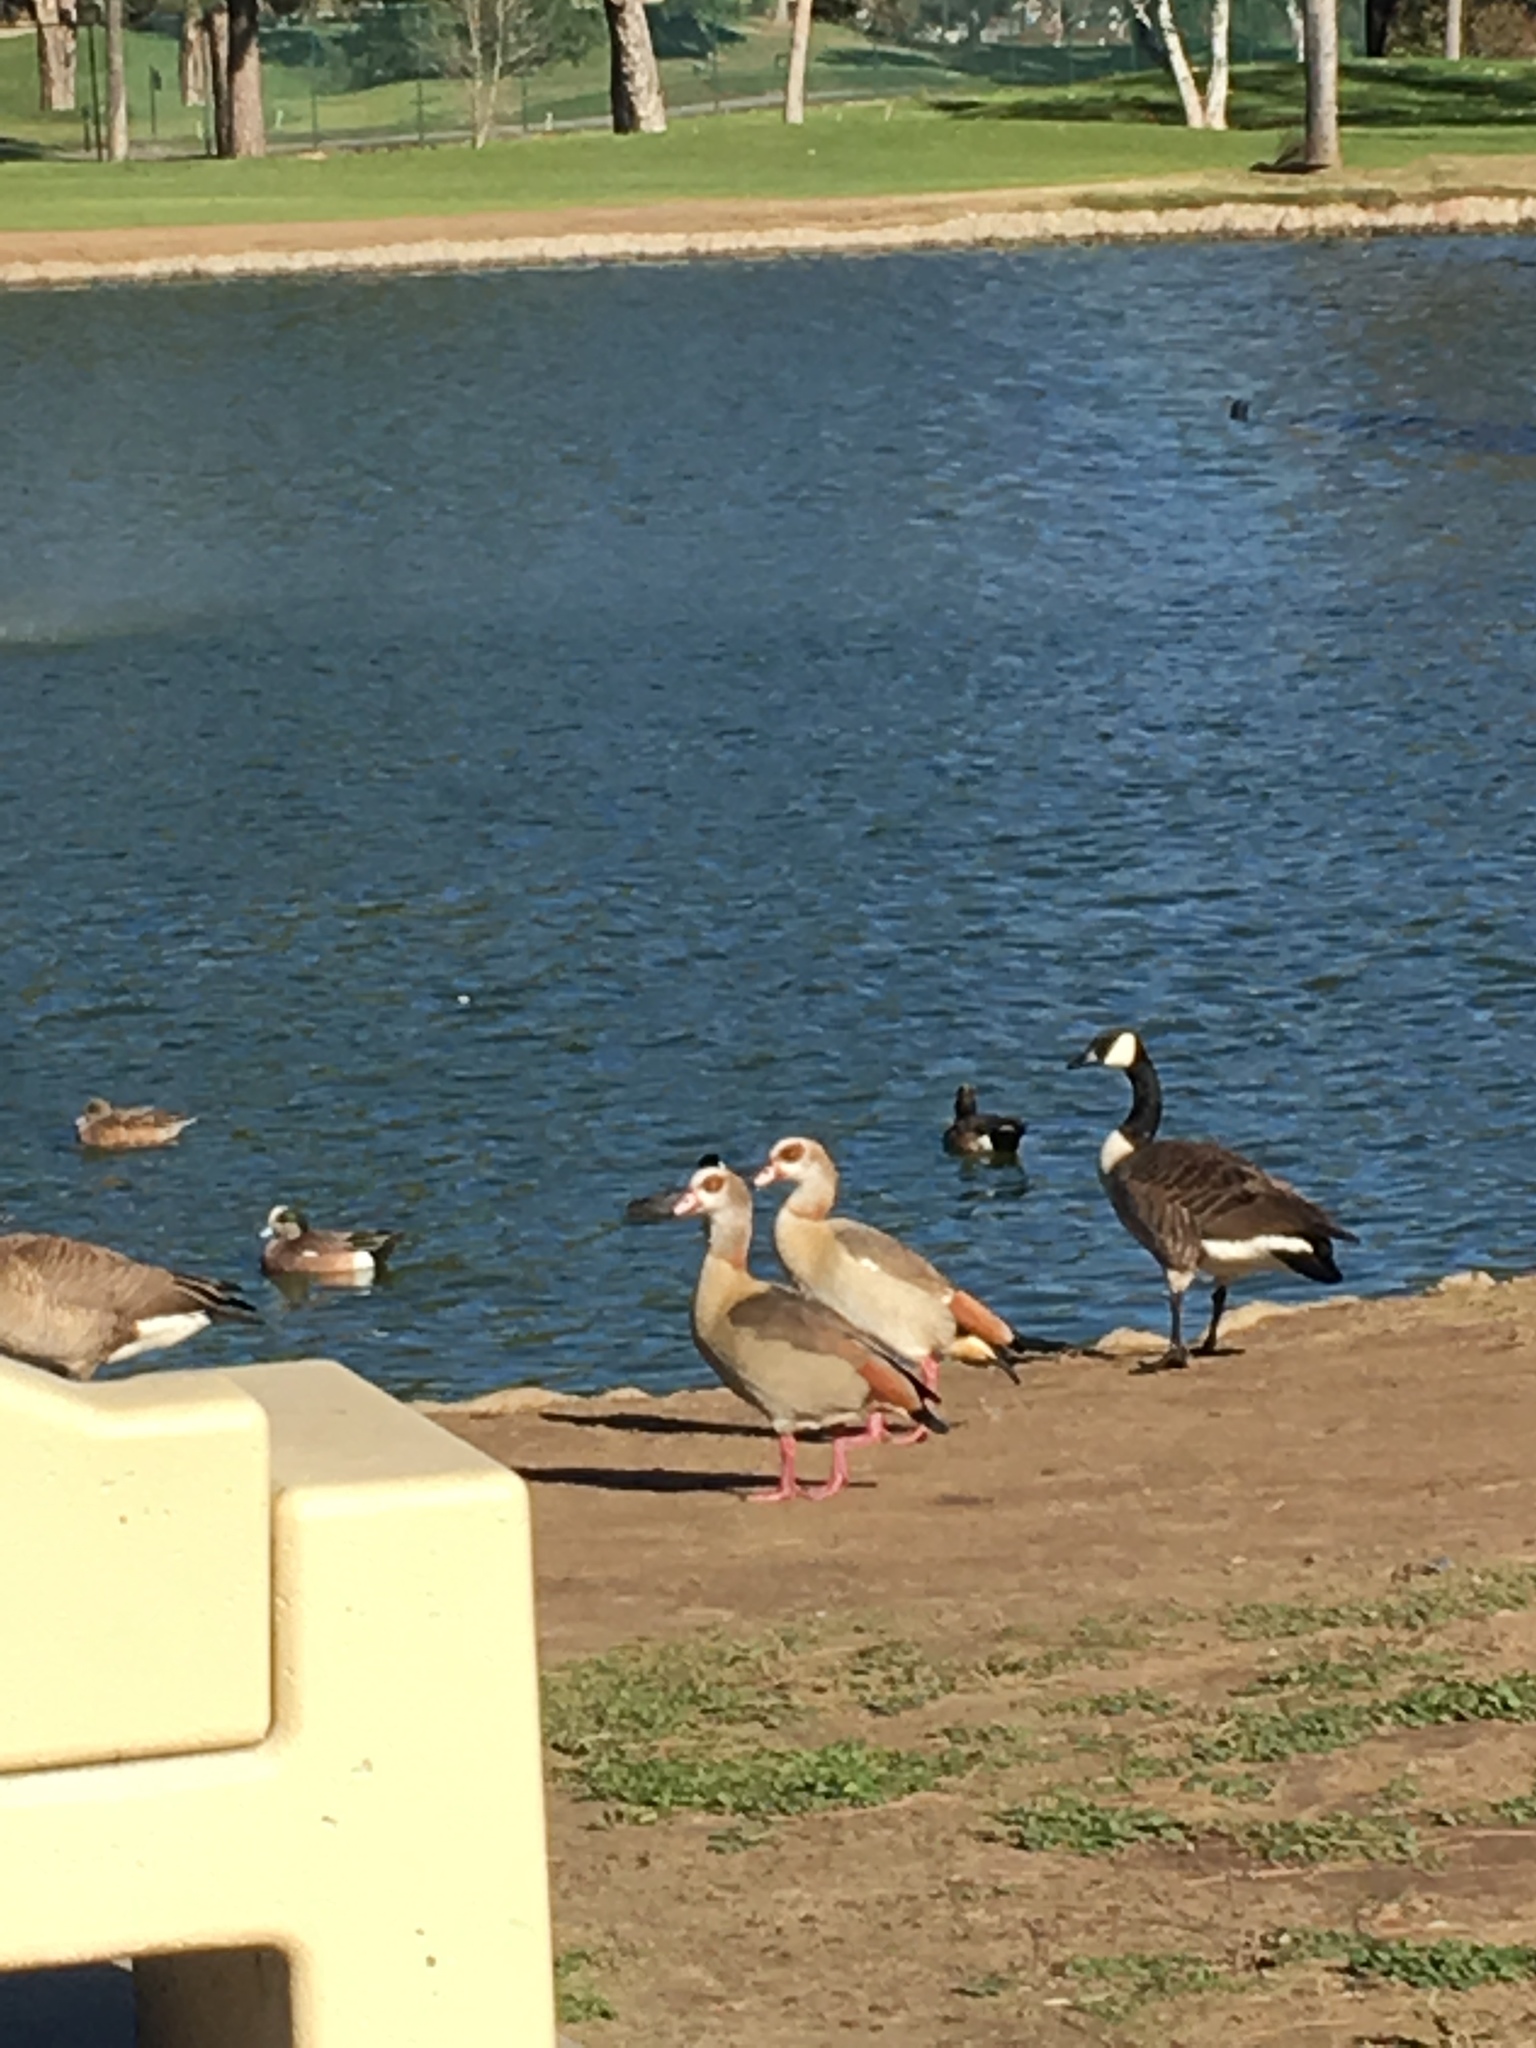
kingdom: Animalia
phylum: Chordata
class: Aves
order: Anseriformes
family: Anatidae
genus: Alopochen
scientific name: Alopochen aegyptiaca
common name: Egyptian goose
